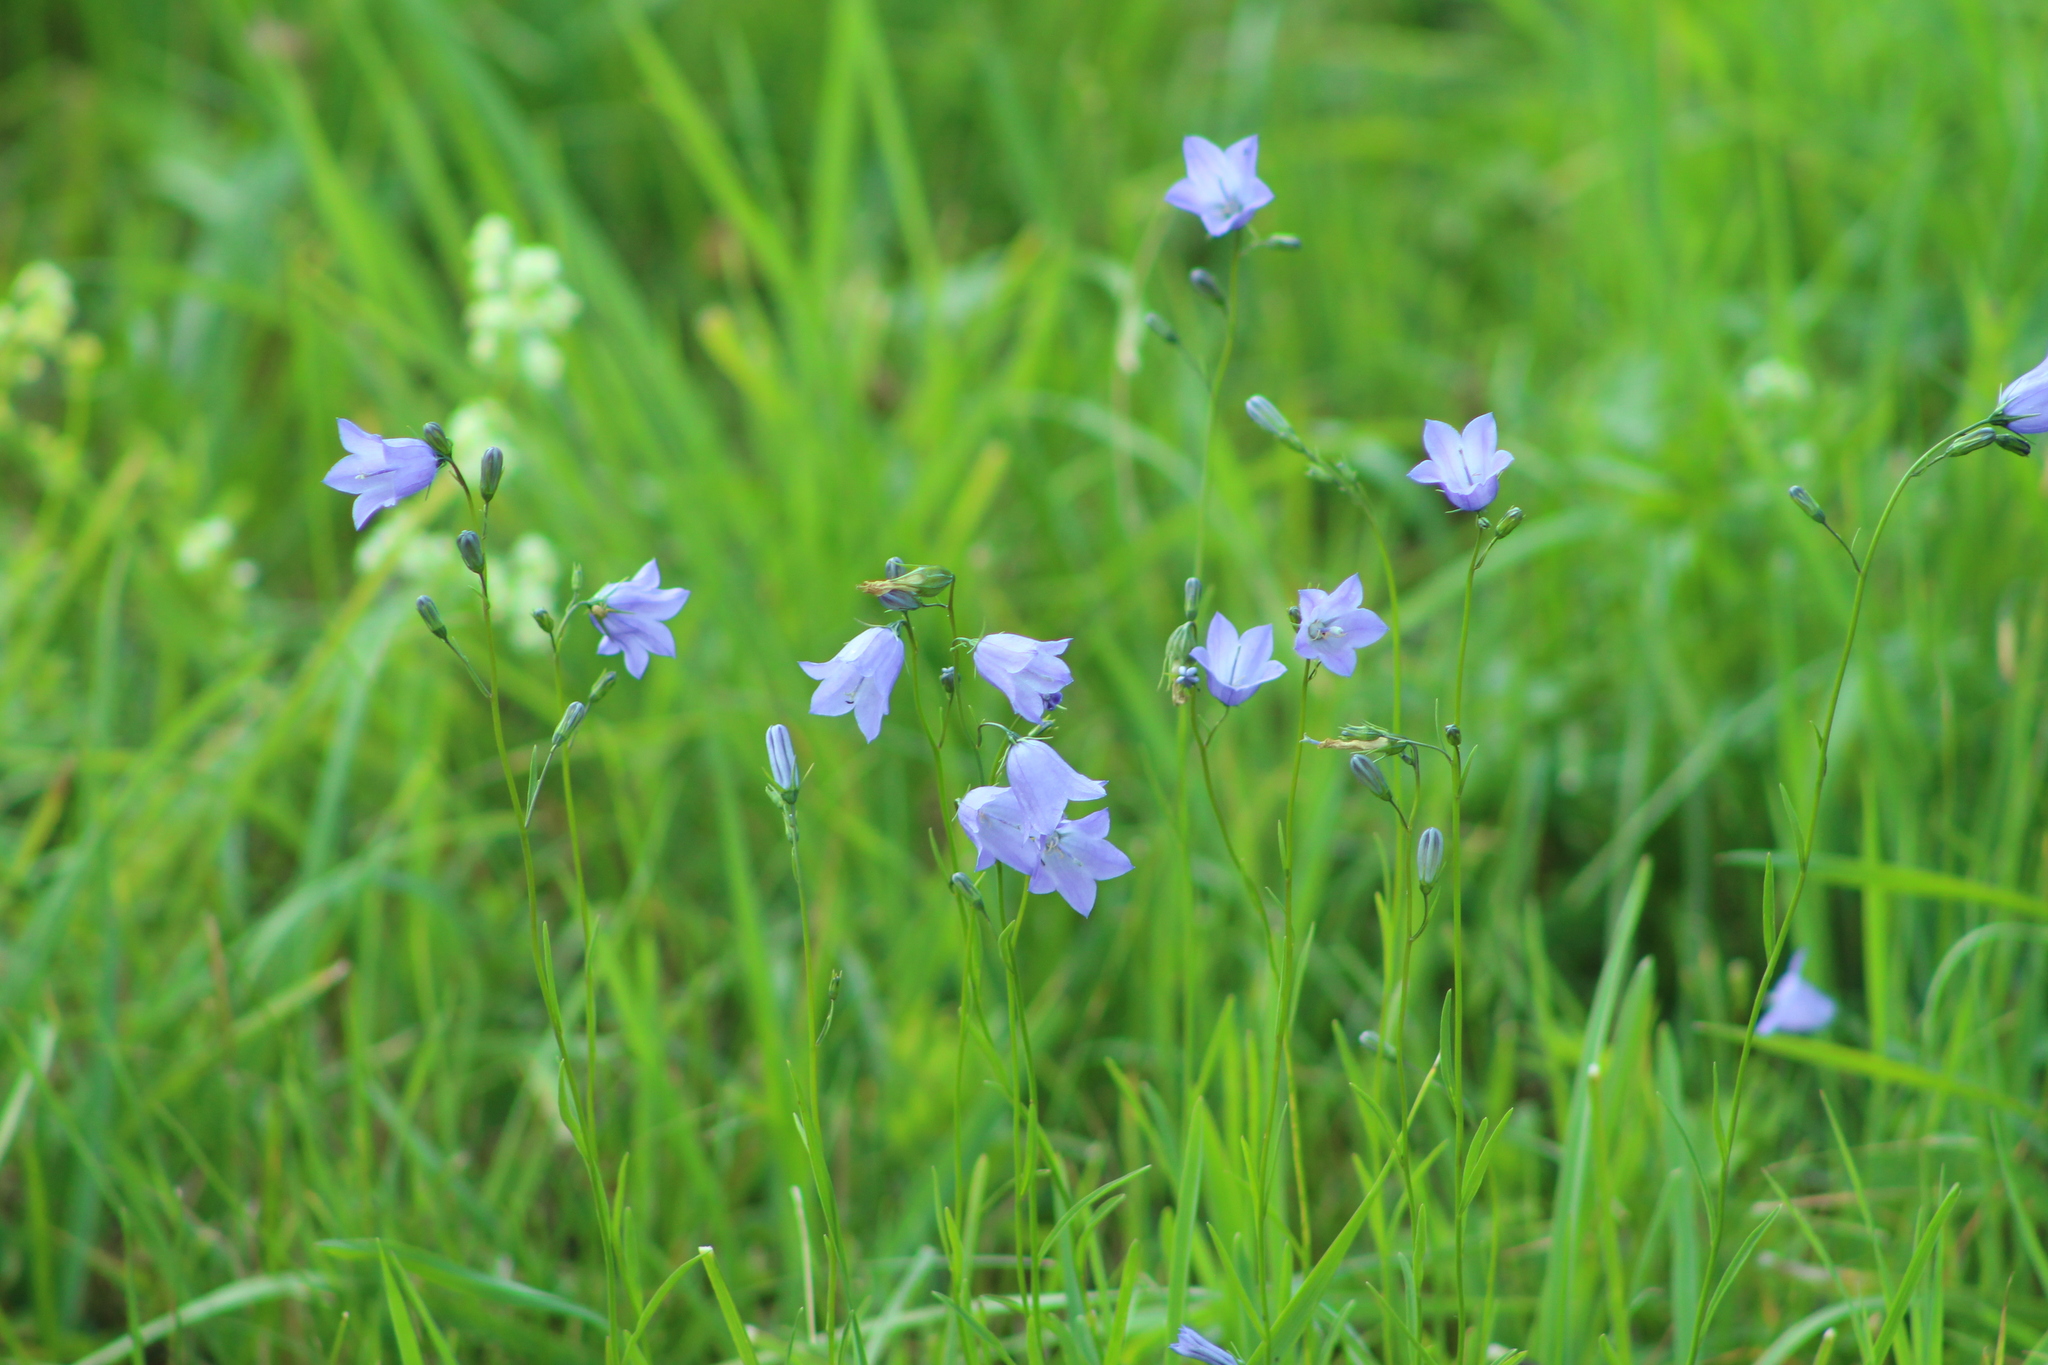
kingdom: Plantae
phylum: Tracheophyta
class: Magnoliopsida
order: Asterales
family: Campanulaceae
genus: Campanula
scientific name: Campanula rotundifolia
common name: Harebell
